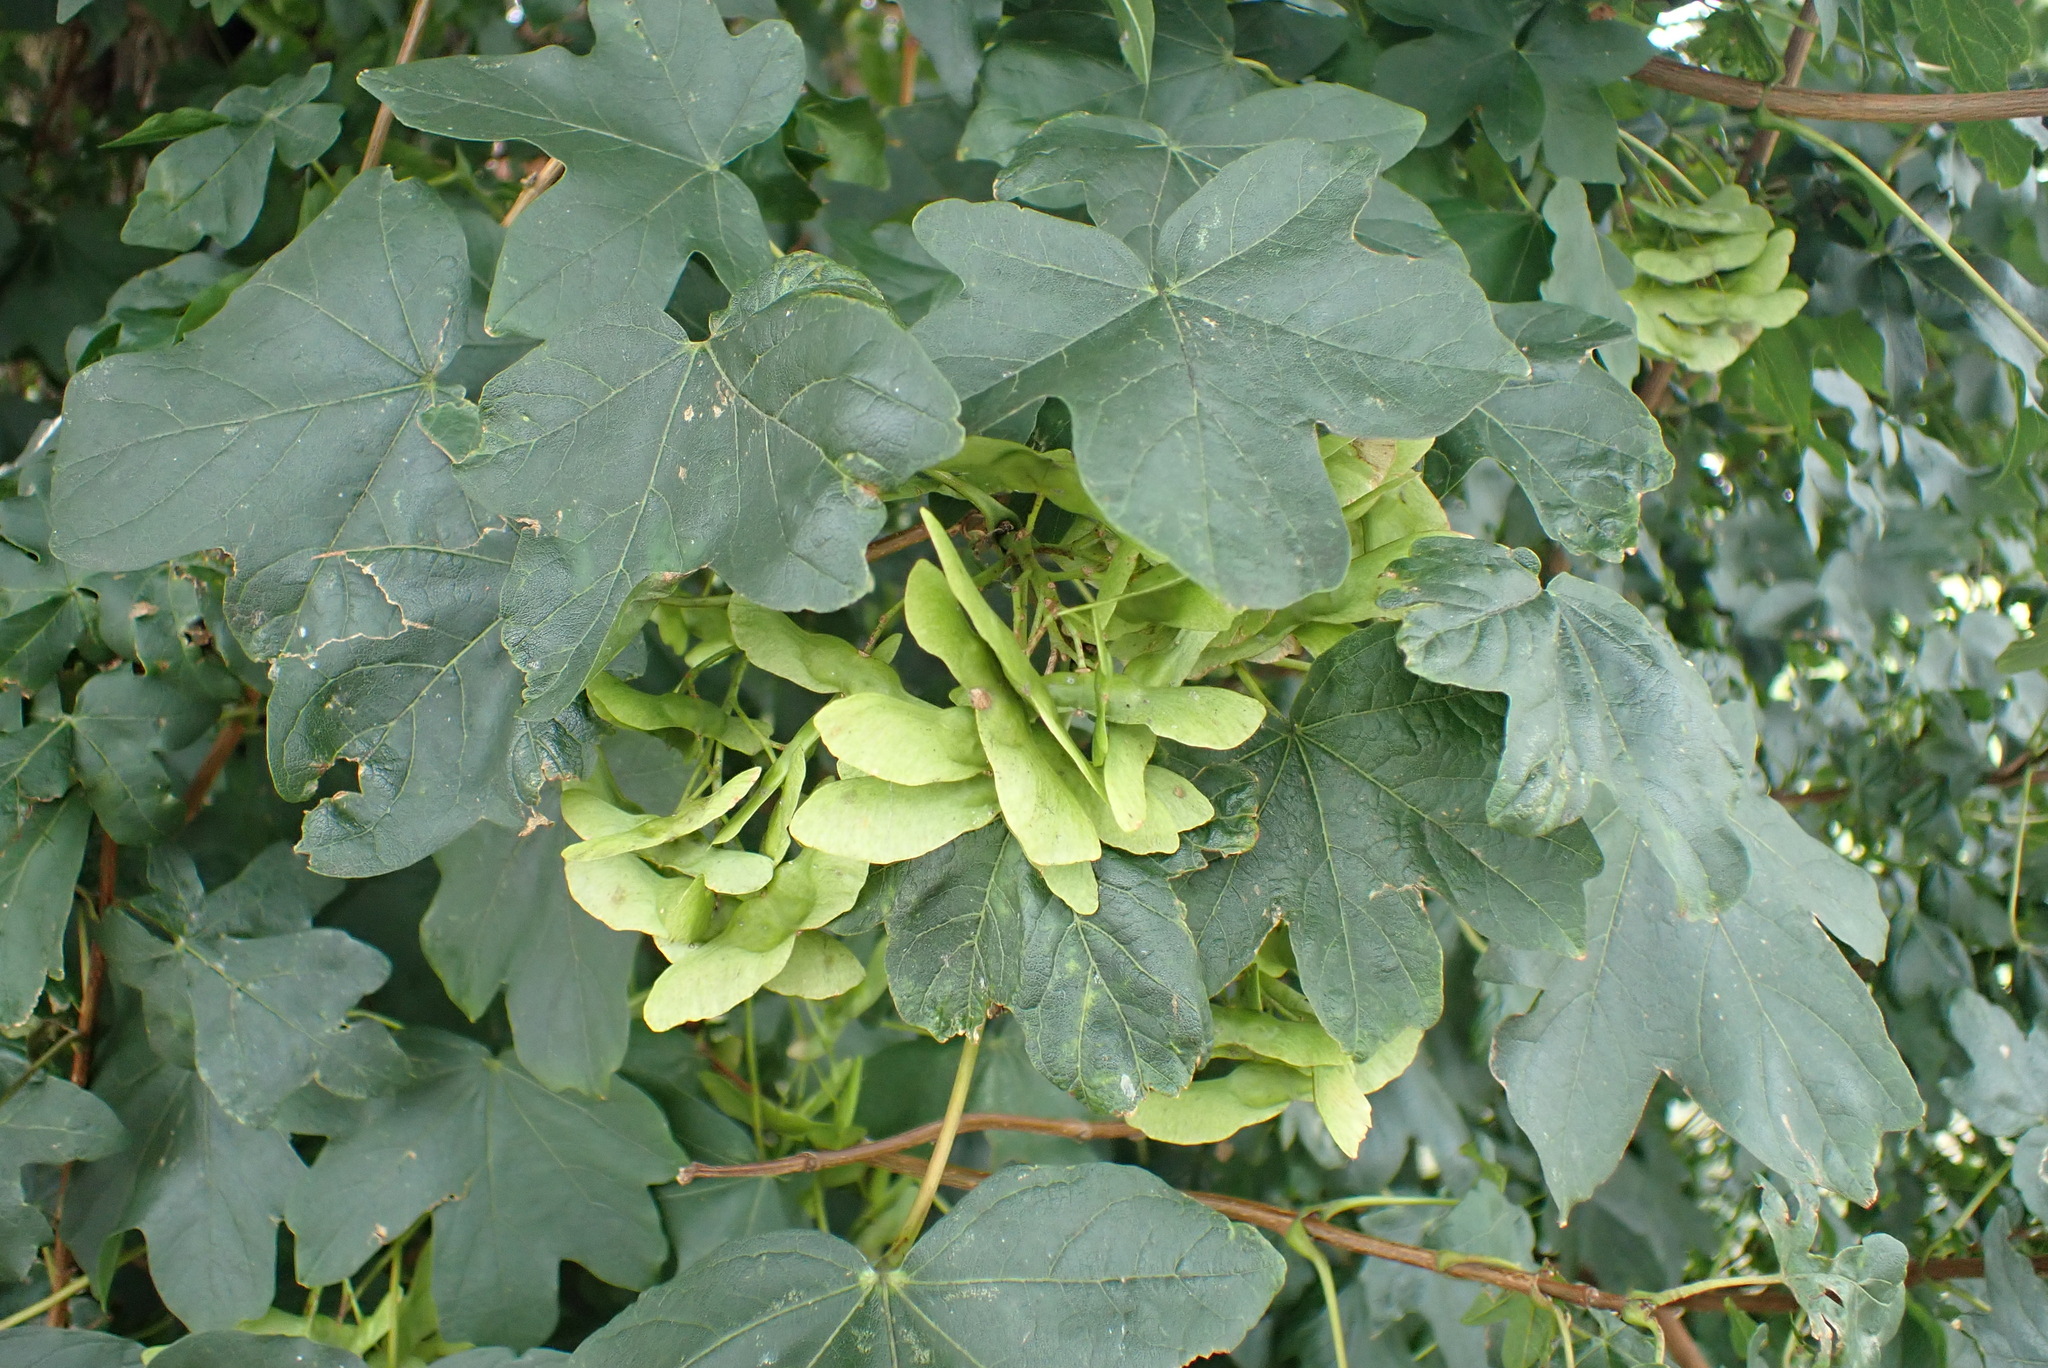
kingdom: Plantae
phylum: Tracheophyta
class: Magnoliopsida
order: Sapindales
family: Sapindaceae
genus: Acer
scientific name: Acer campestre
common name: Field maple
